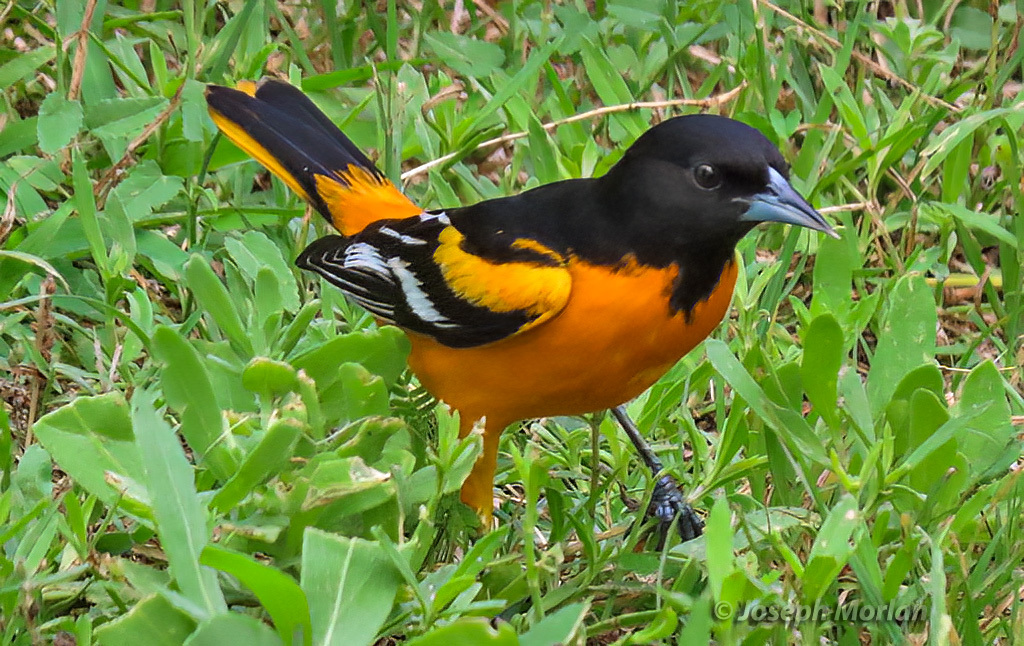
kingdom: Animalia
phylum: Chordata
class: Aves
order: Passeriformes
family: Icteridae
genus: Icterus
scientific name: Icterus galbula
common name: Baltimore oriole
